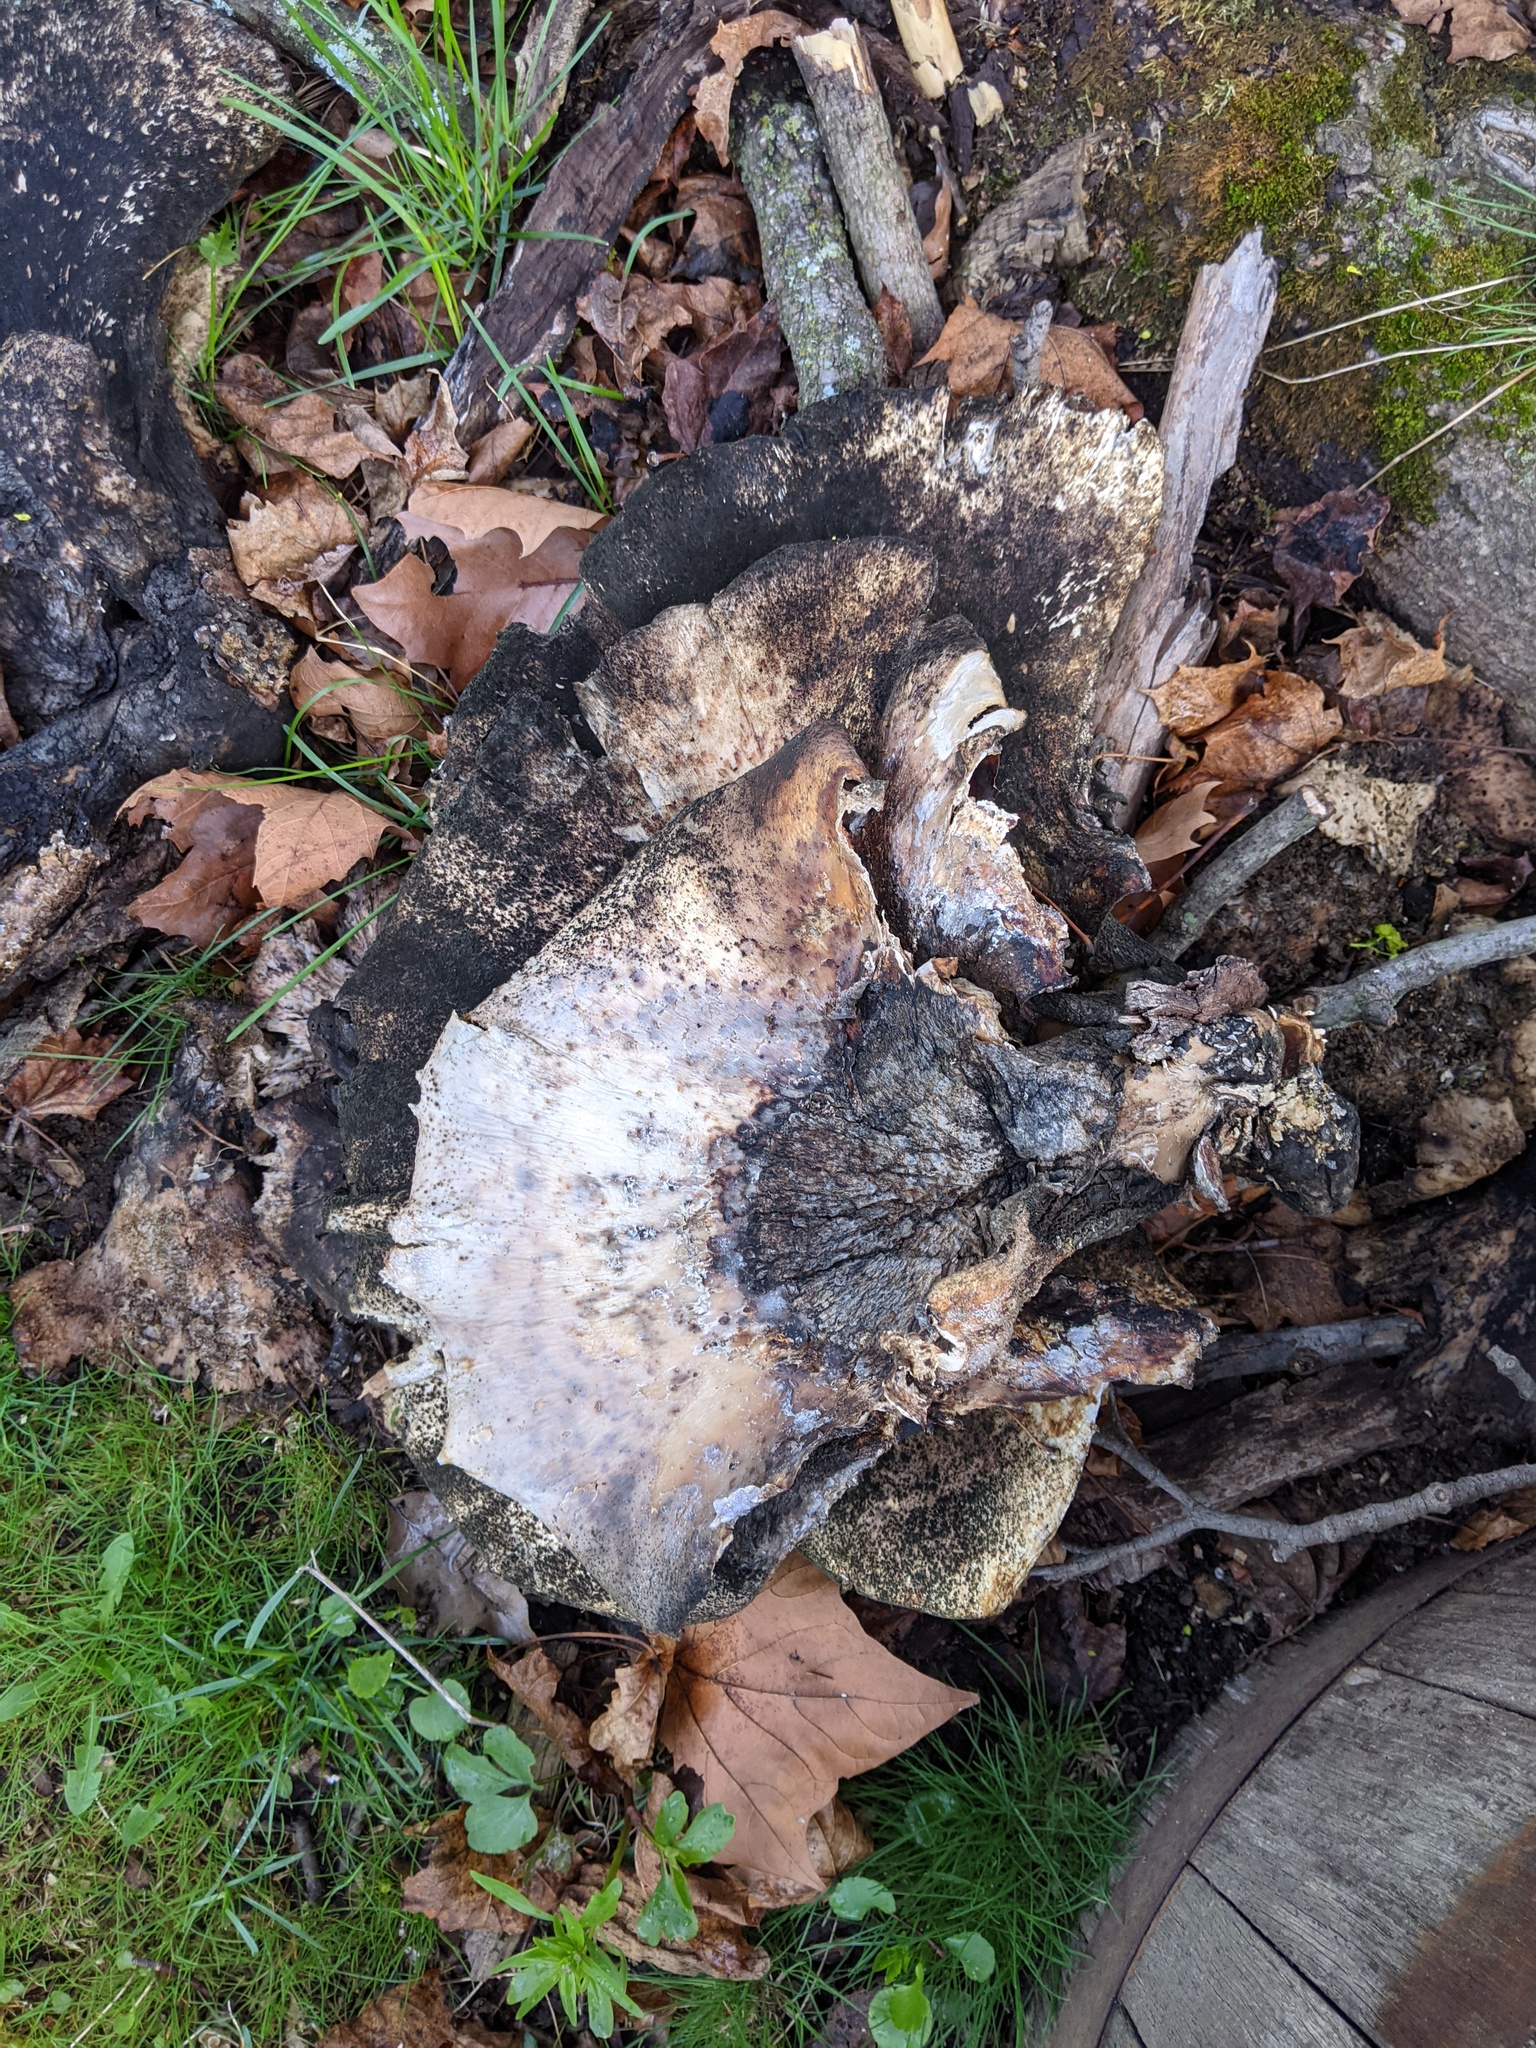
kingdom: Fungi
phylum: Basidiomycota
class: Agaricomycetes
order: Polyporales
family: Polyporaceae
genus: Cerioporus
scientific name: Cerioporus squamosus
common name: Dryad's saddle
